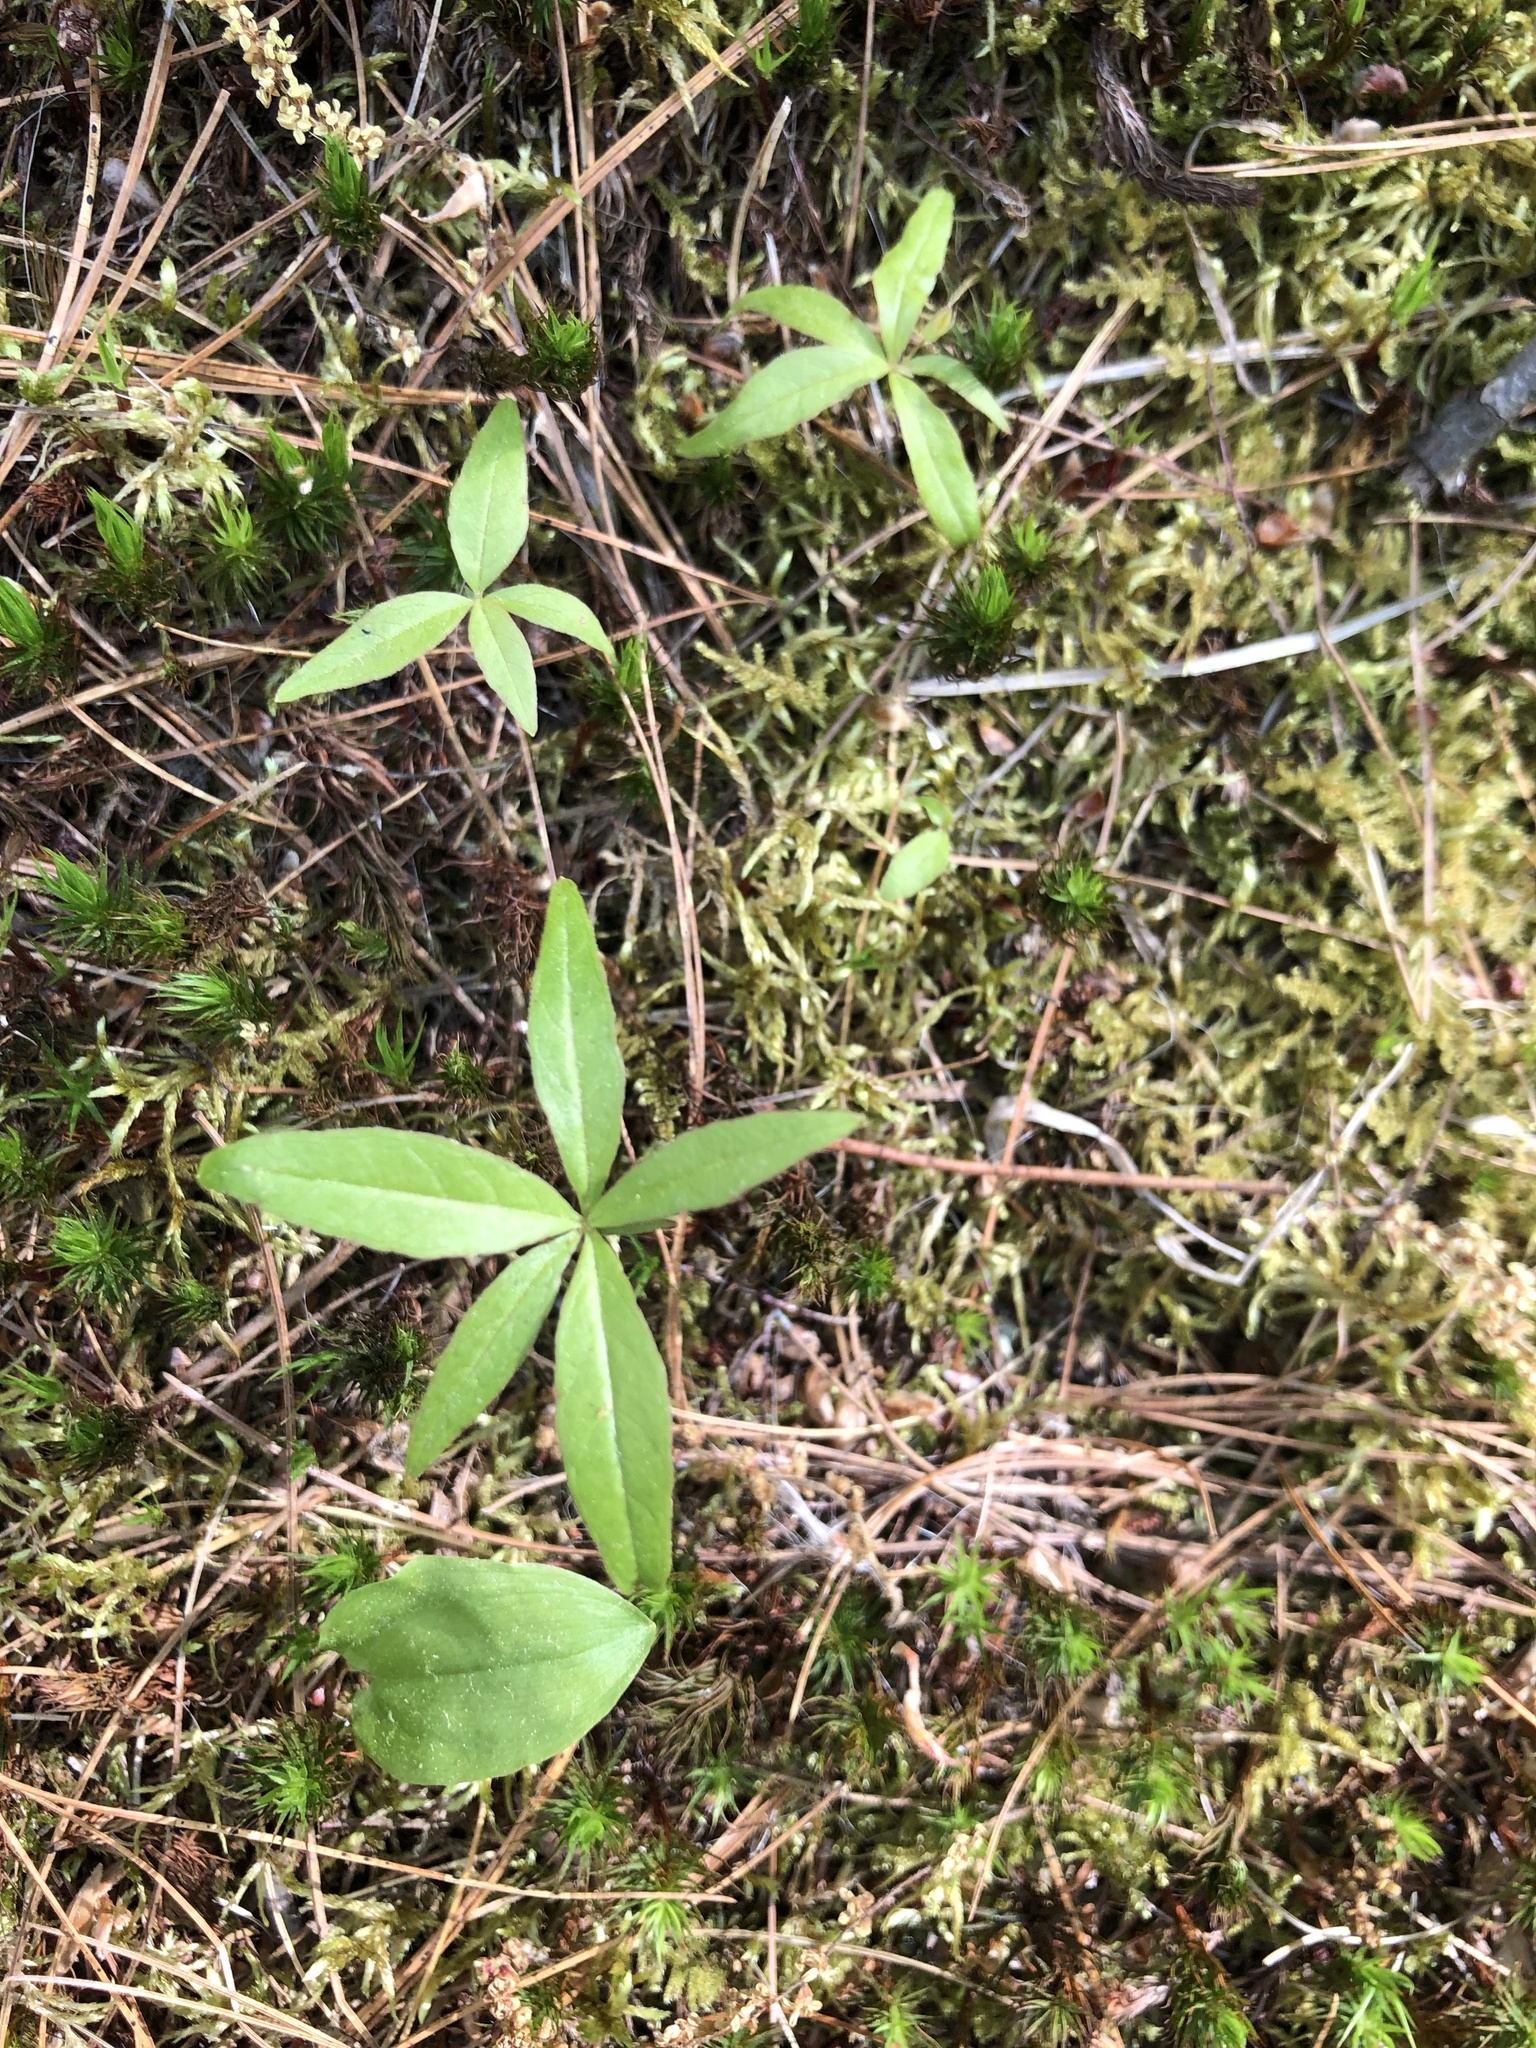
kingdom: Plantae
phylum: Tracheophyta
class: Magnoliopsida
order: Ericales
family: Primulaceae
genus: Lysimachia
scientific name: Lysimachia borealis
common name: American starflower
